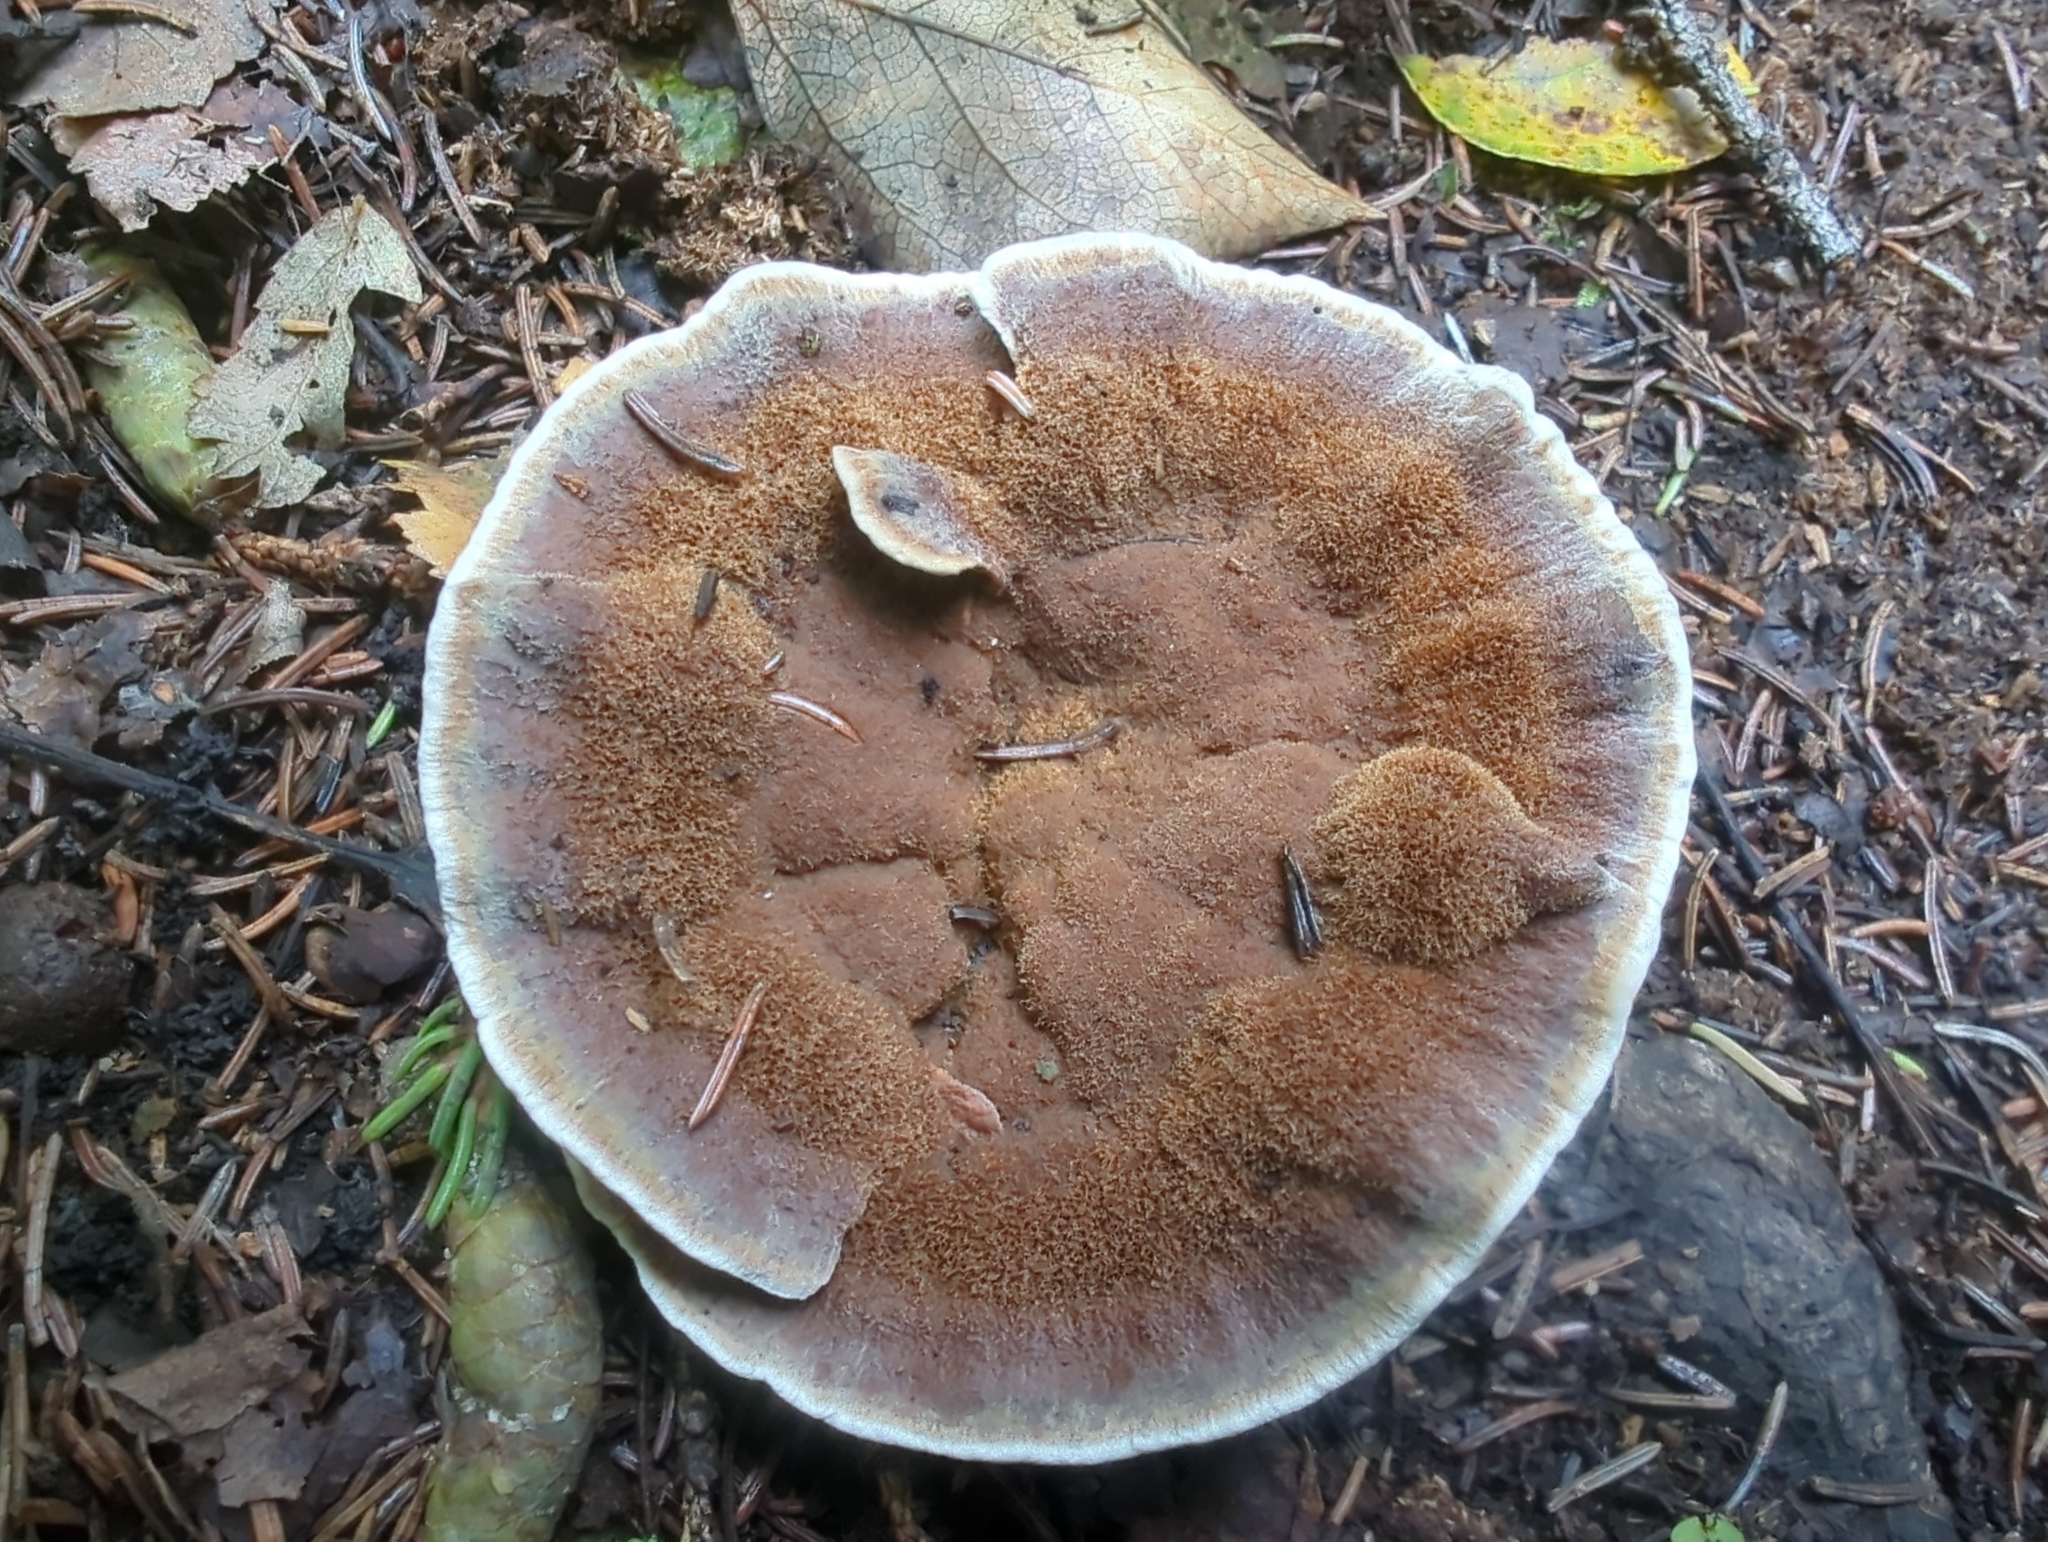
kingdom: Fungi
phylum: Basidiomycota
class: Agaricomycetes
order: Hymenochaetales
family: Hymenochaetaceae
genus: Onnia
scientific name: Onnia tomentosa
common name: Velvet rosette
